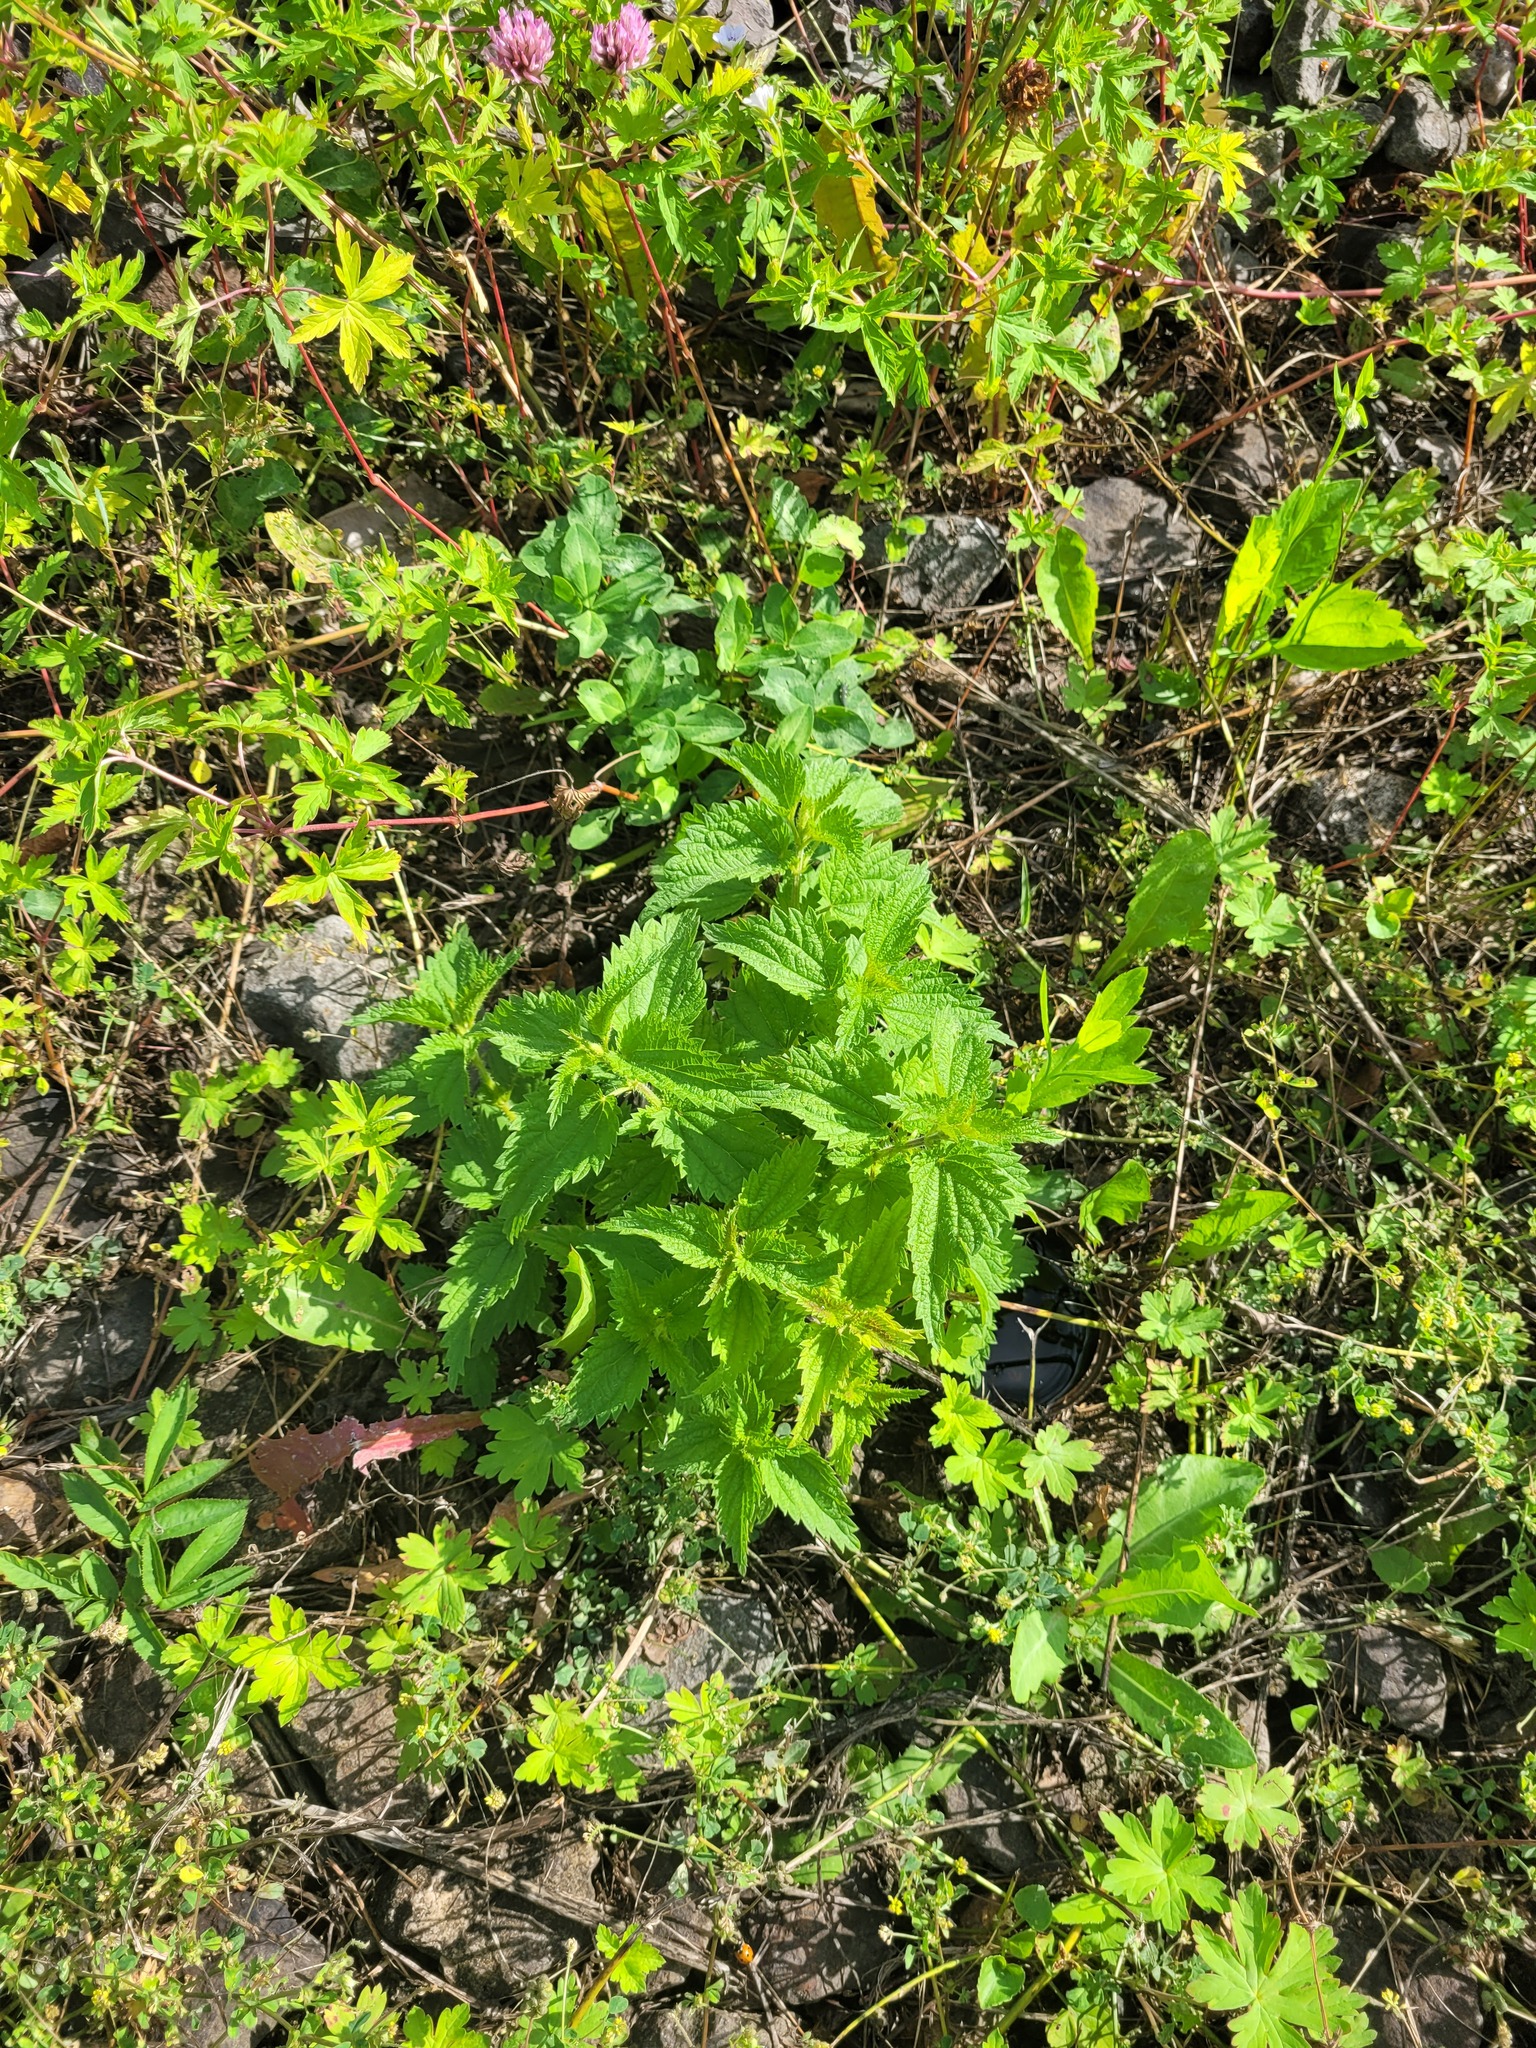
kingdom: Plantae
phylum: Tracheophyta
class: Magnoliopsida
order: Rosales
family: Urticaceae
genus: Urtica
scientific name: Urtica dioica
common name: Common nettle
